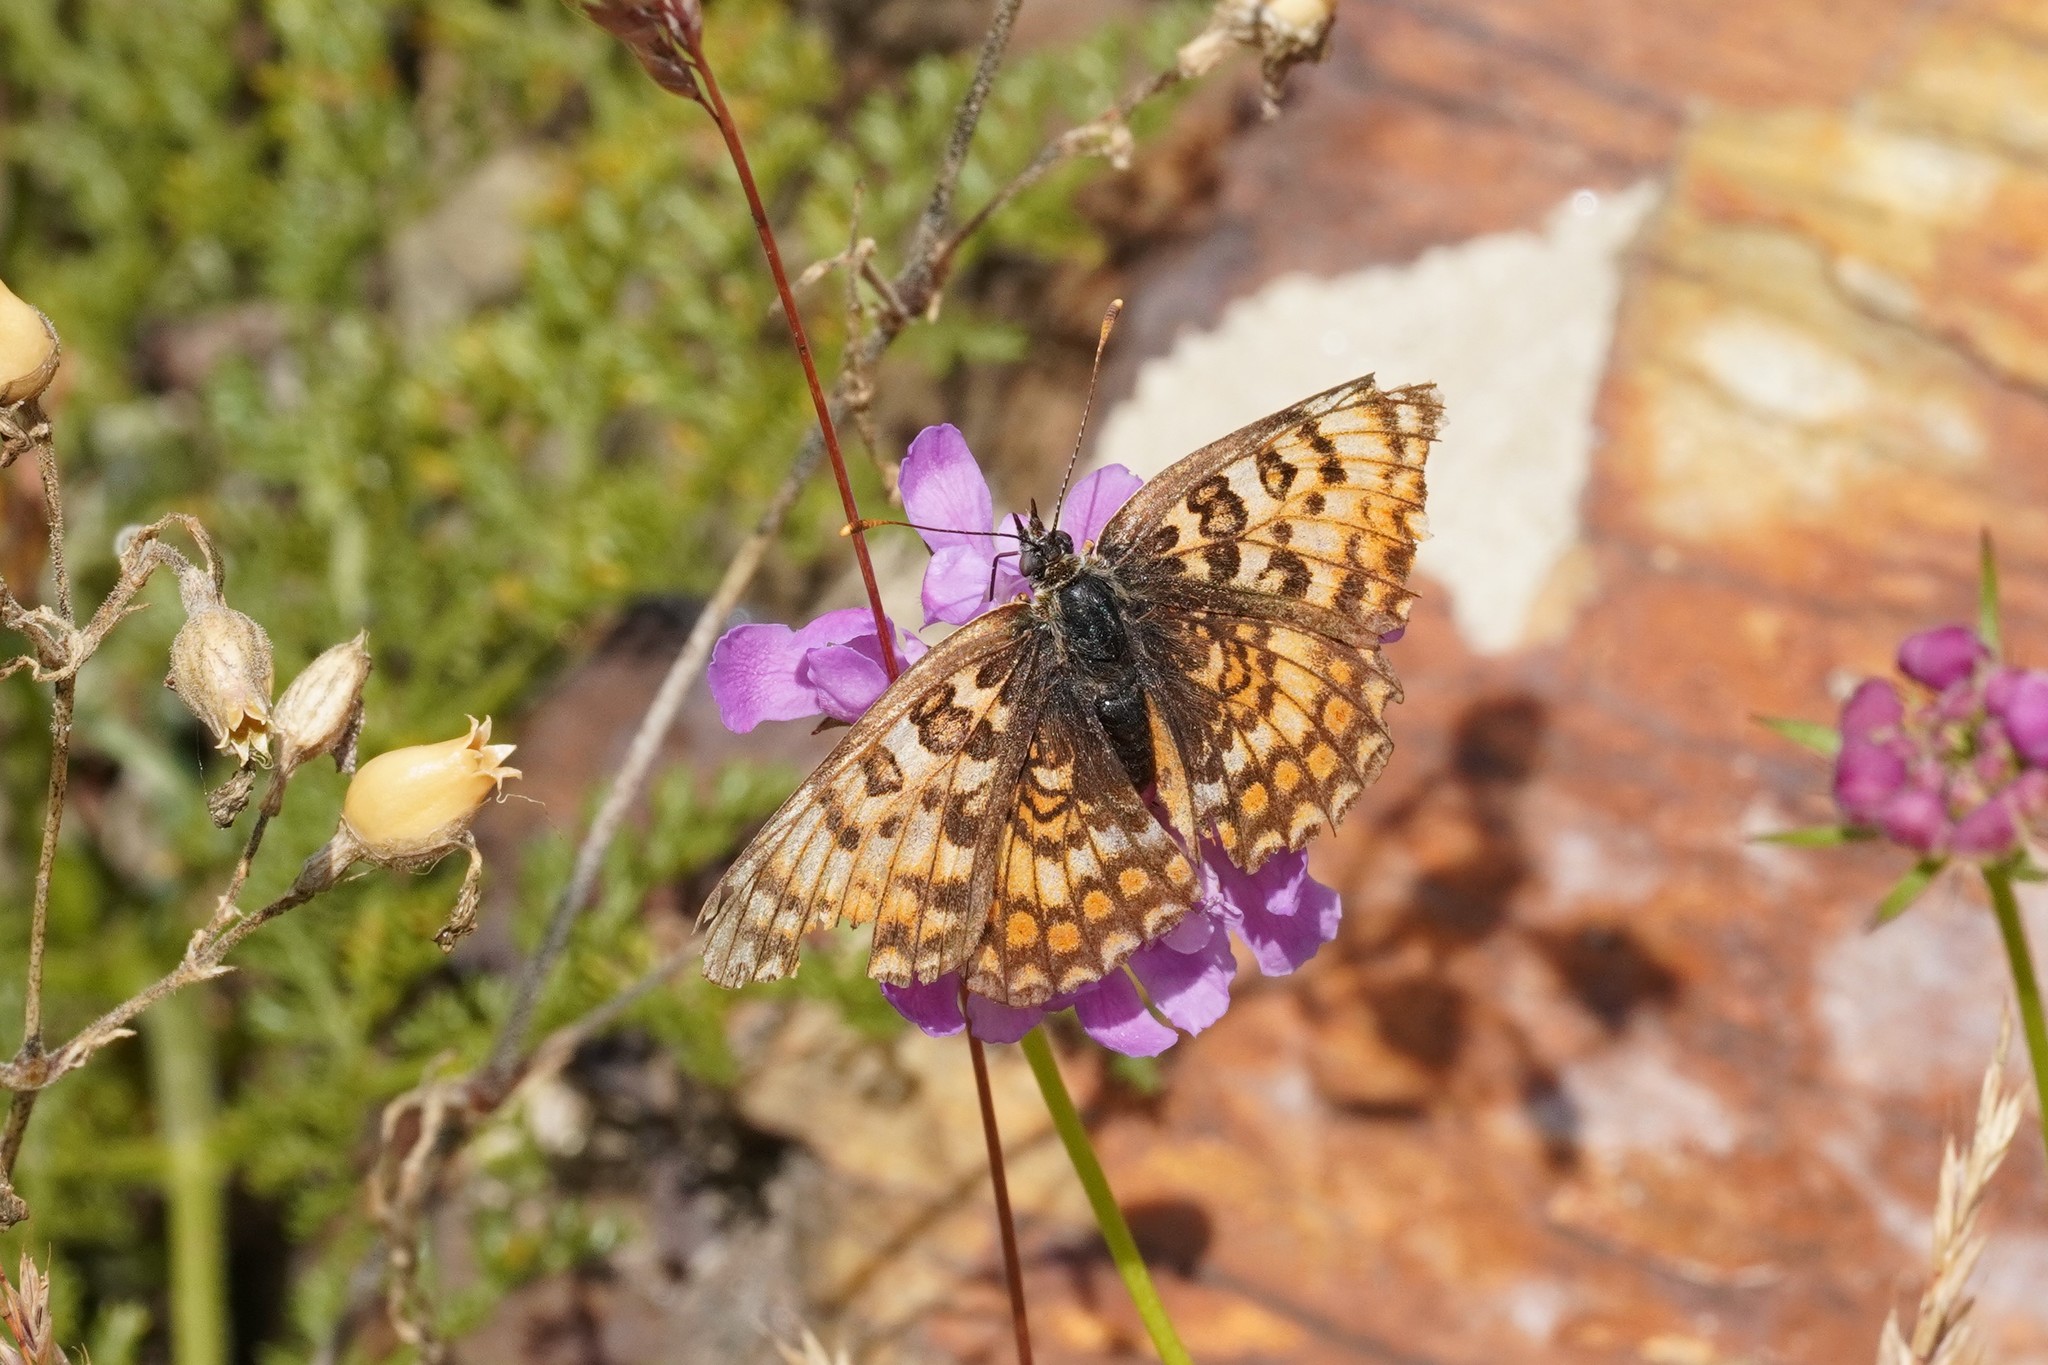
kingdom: Animalia
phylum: Arthropoda
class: Insecta
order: Lepidoptera
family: Nymphalidae
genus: Melitaea
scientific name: Melitaea phoebe
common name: Knapweed fritillary
